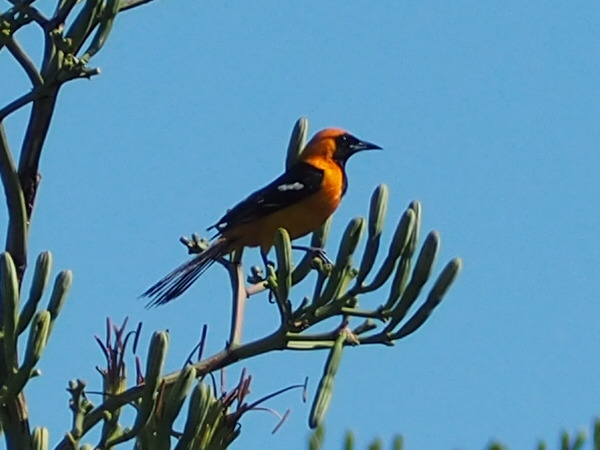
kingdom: Animalia
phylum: Chordata
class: Aves
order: Passeriformes
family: Icteridae
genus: Icterus
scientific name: Icterus cucullatus
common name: Hooded oriole
